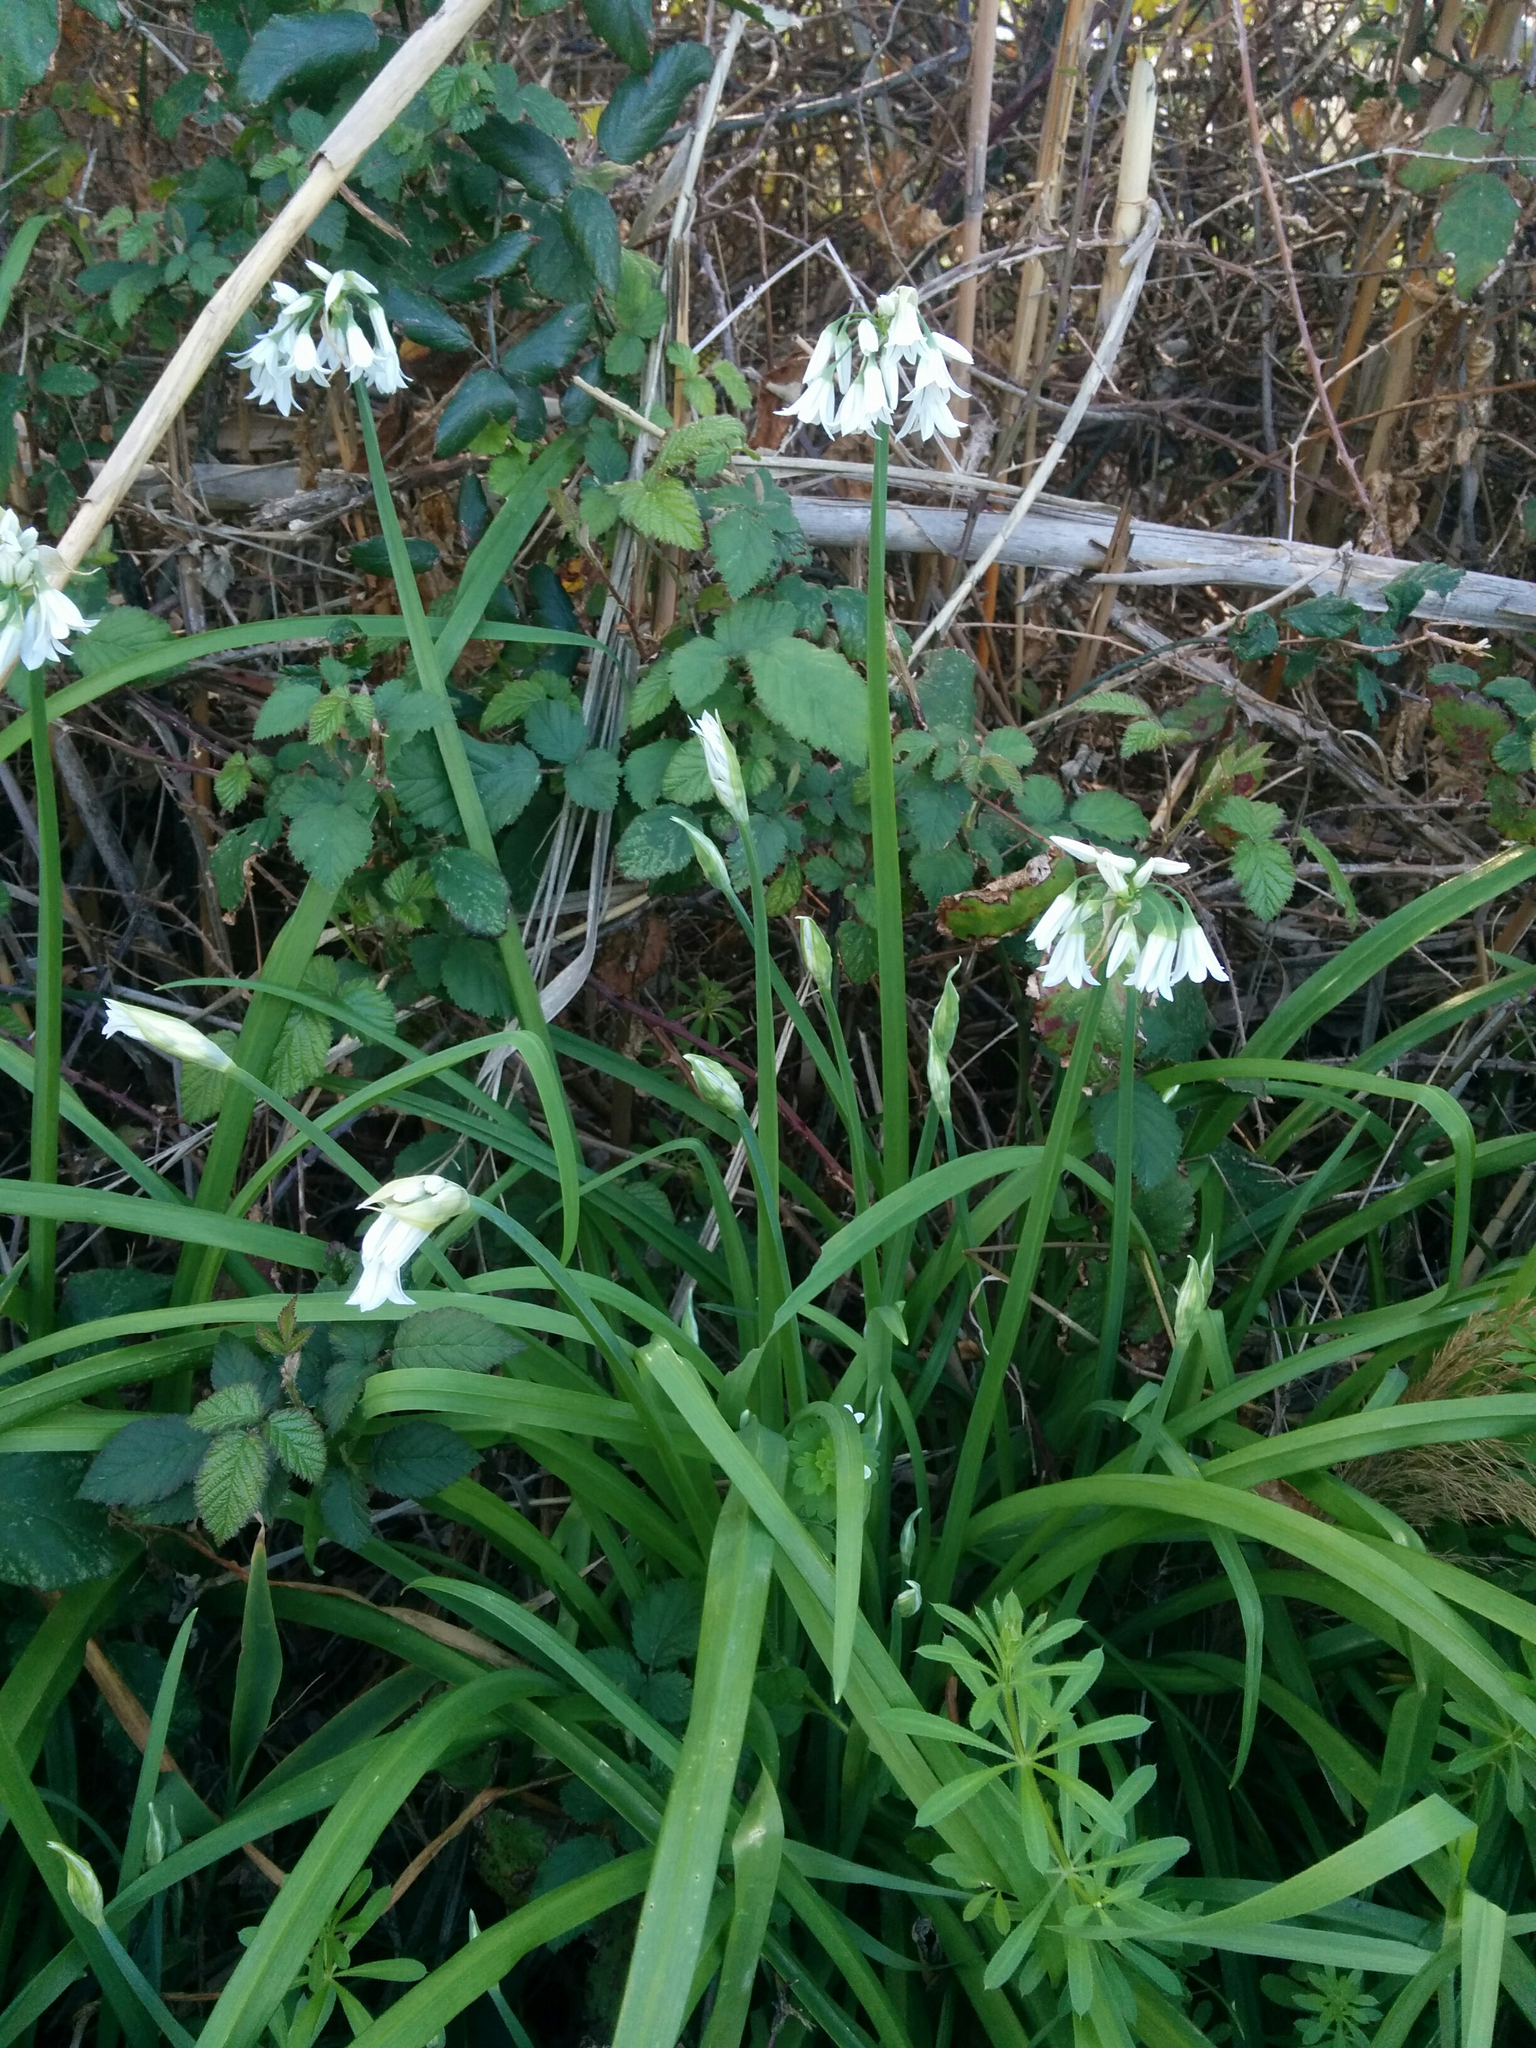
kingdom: Plantae
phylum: Tracheophyta
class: Liliopsida
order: Asparagales
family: Amaryllidaceae
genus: Allium
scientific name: Allium triquetrum
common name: Three-cornered garlic
